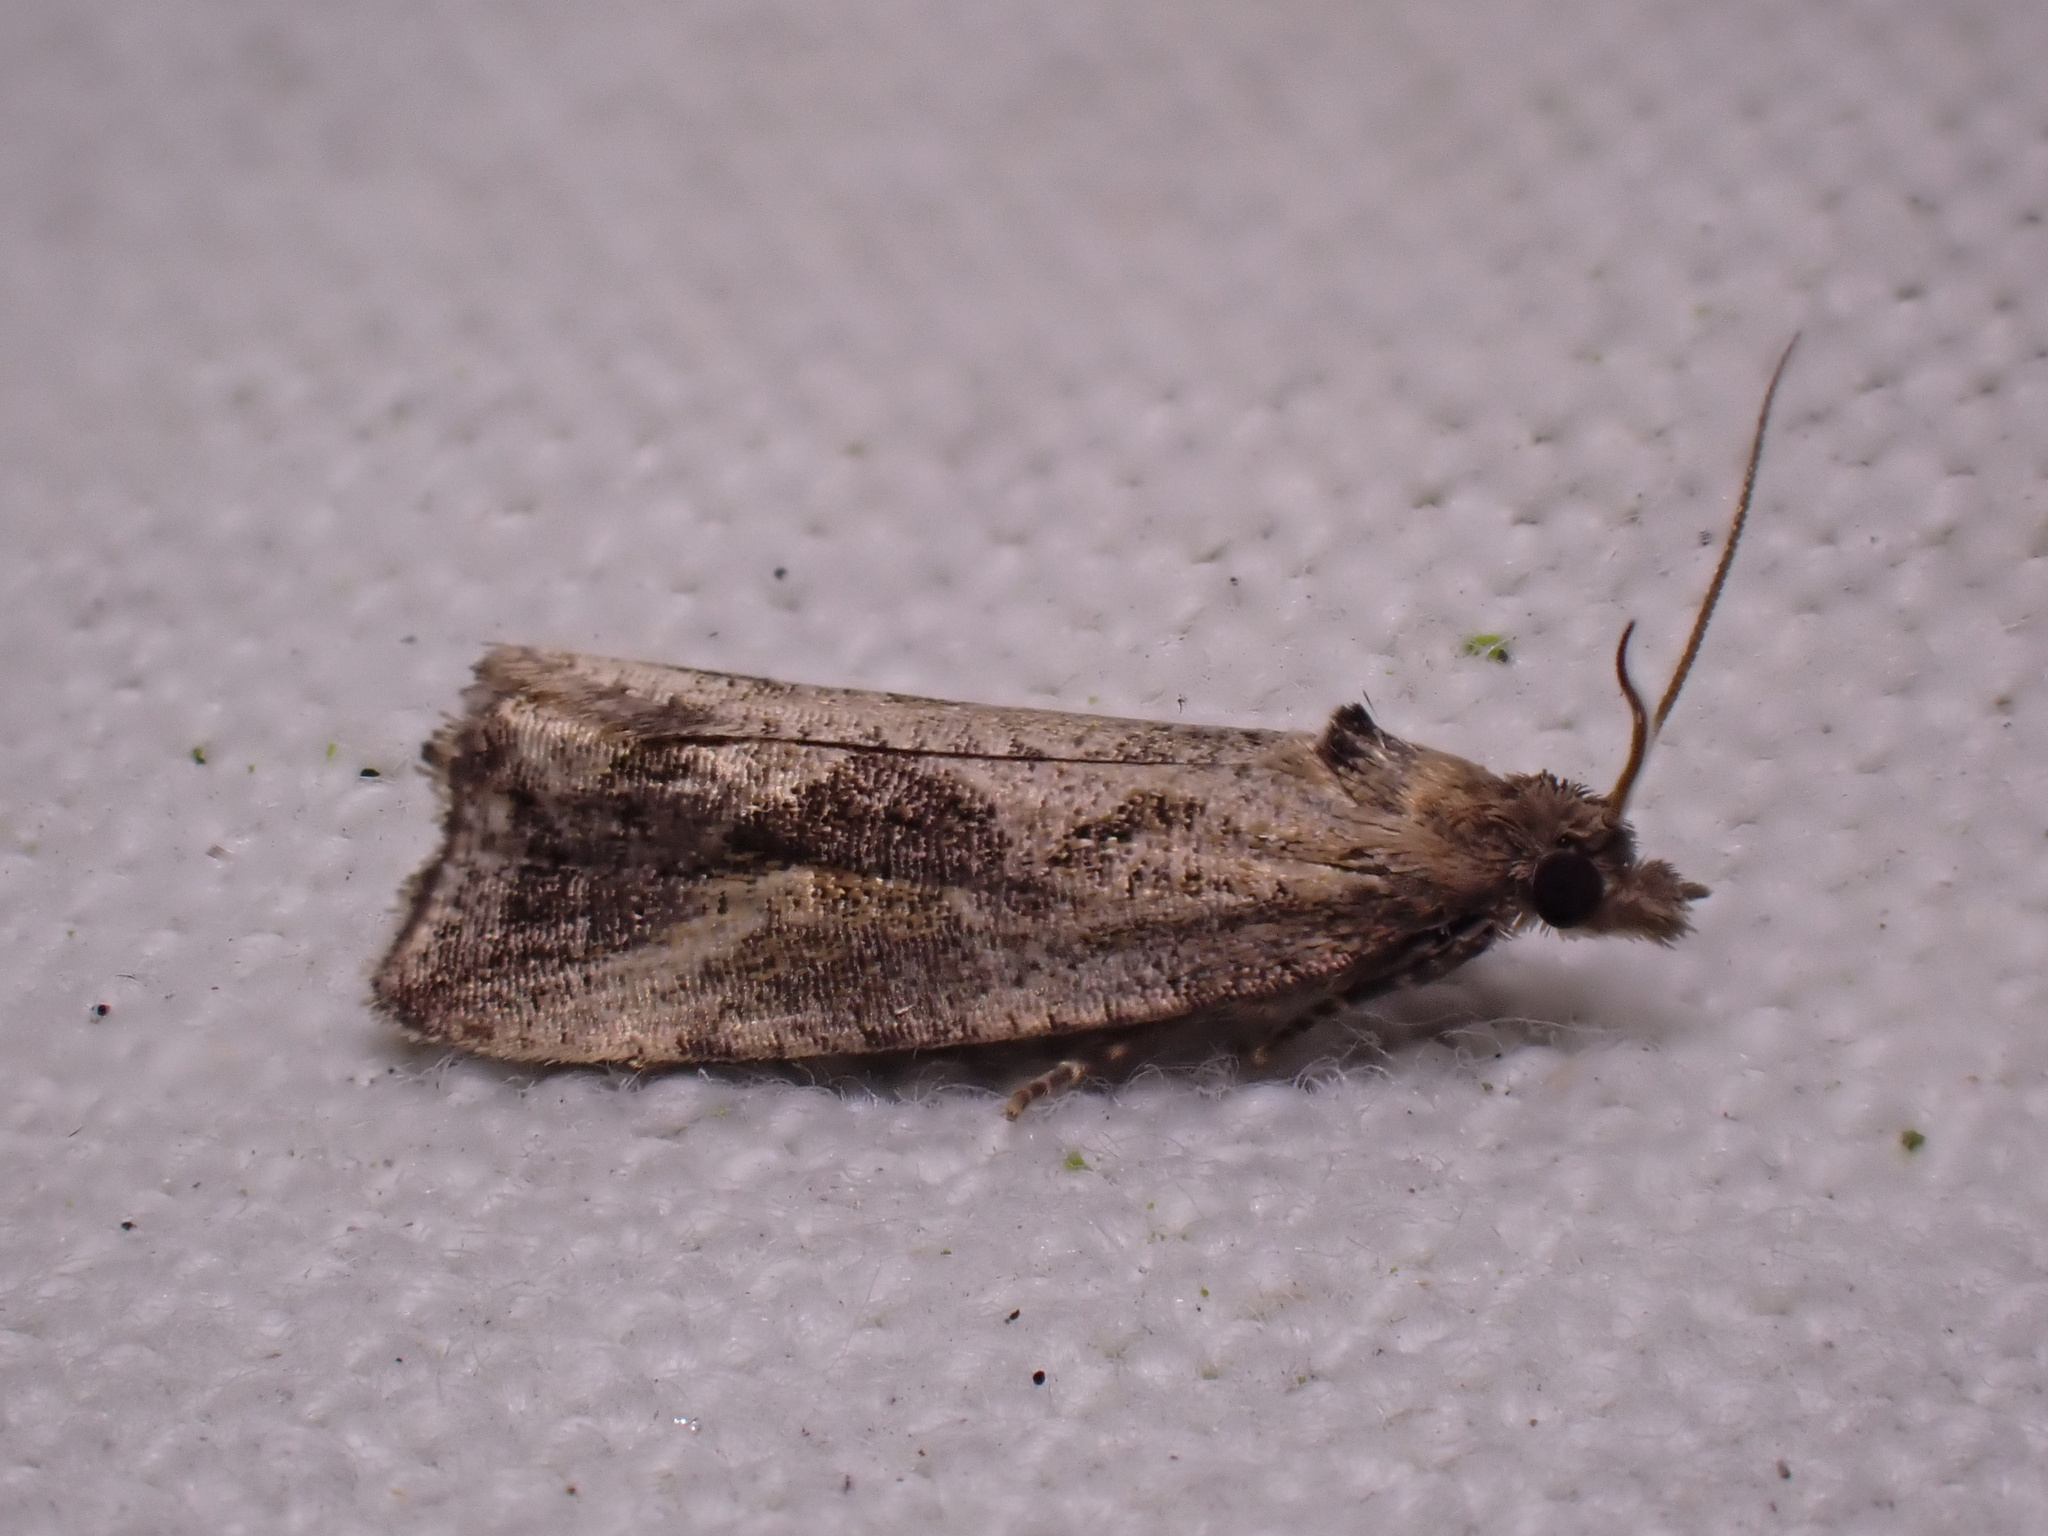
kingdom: Animalia
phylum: Arthropoda
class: Insecta
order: Lepidoptera
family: Tortricidae
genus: Endothenia
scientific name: Endothenia quadrimaculana
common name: Tortricid moth
